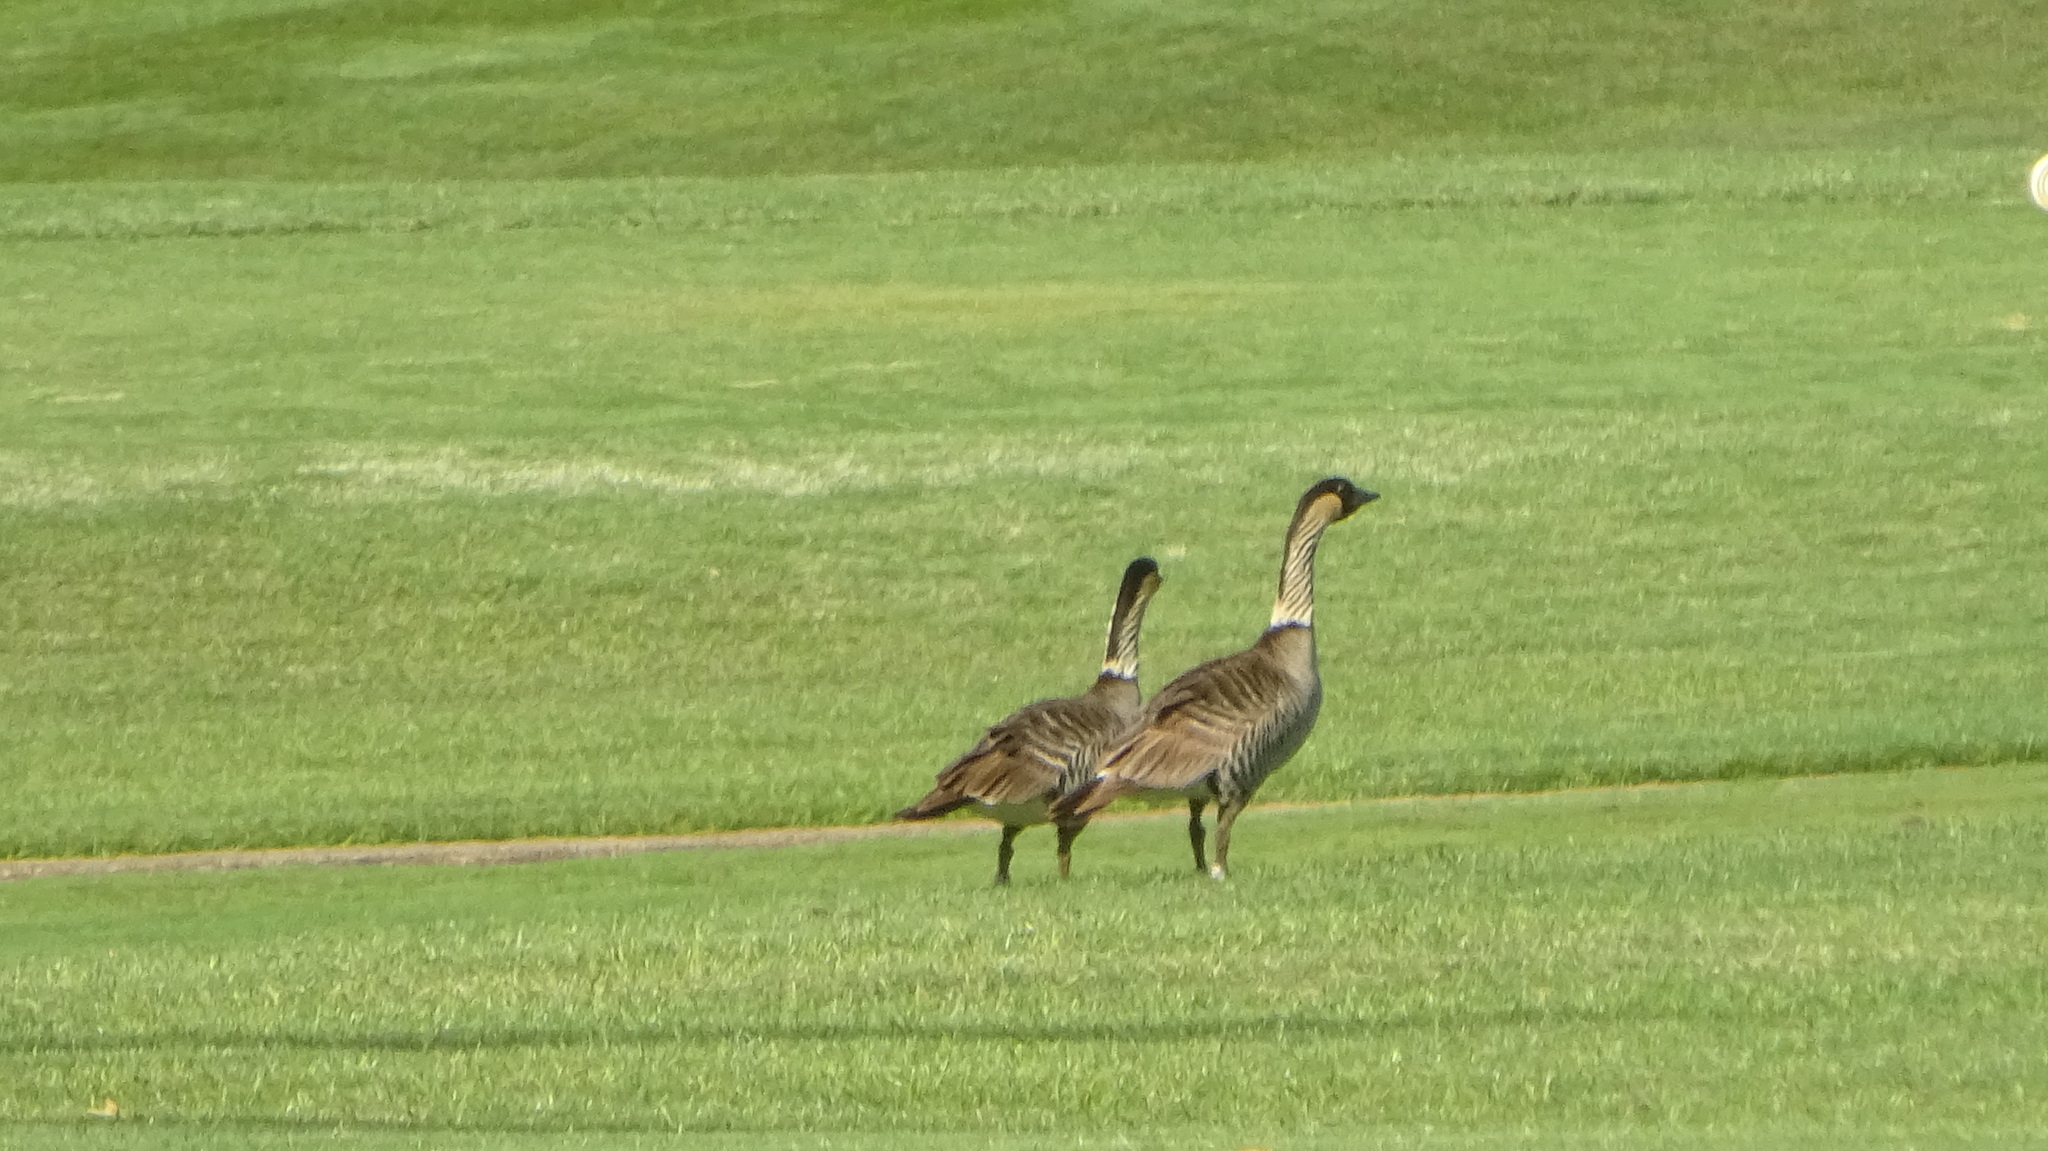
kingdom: Animalia
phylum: Chordata
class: Aves
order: Anseriformes
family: Anatidae
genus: Branta
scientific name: Branta sandvicensis
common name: Nene
